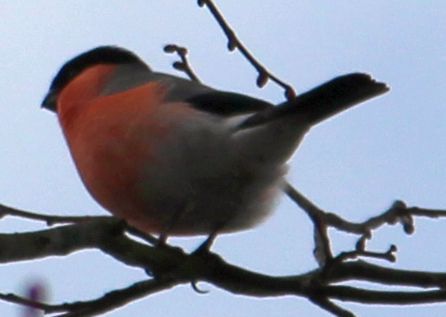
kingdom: Animalia
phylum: Chordata
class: Aves
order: Passeriformes
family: Fringillidae
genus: Pyrrhula
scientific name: Pyrrhula pyrrhula
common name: Eurasian bullfinch
